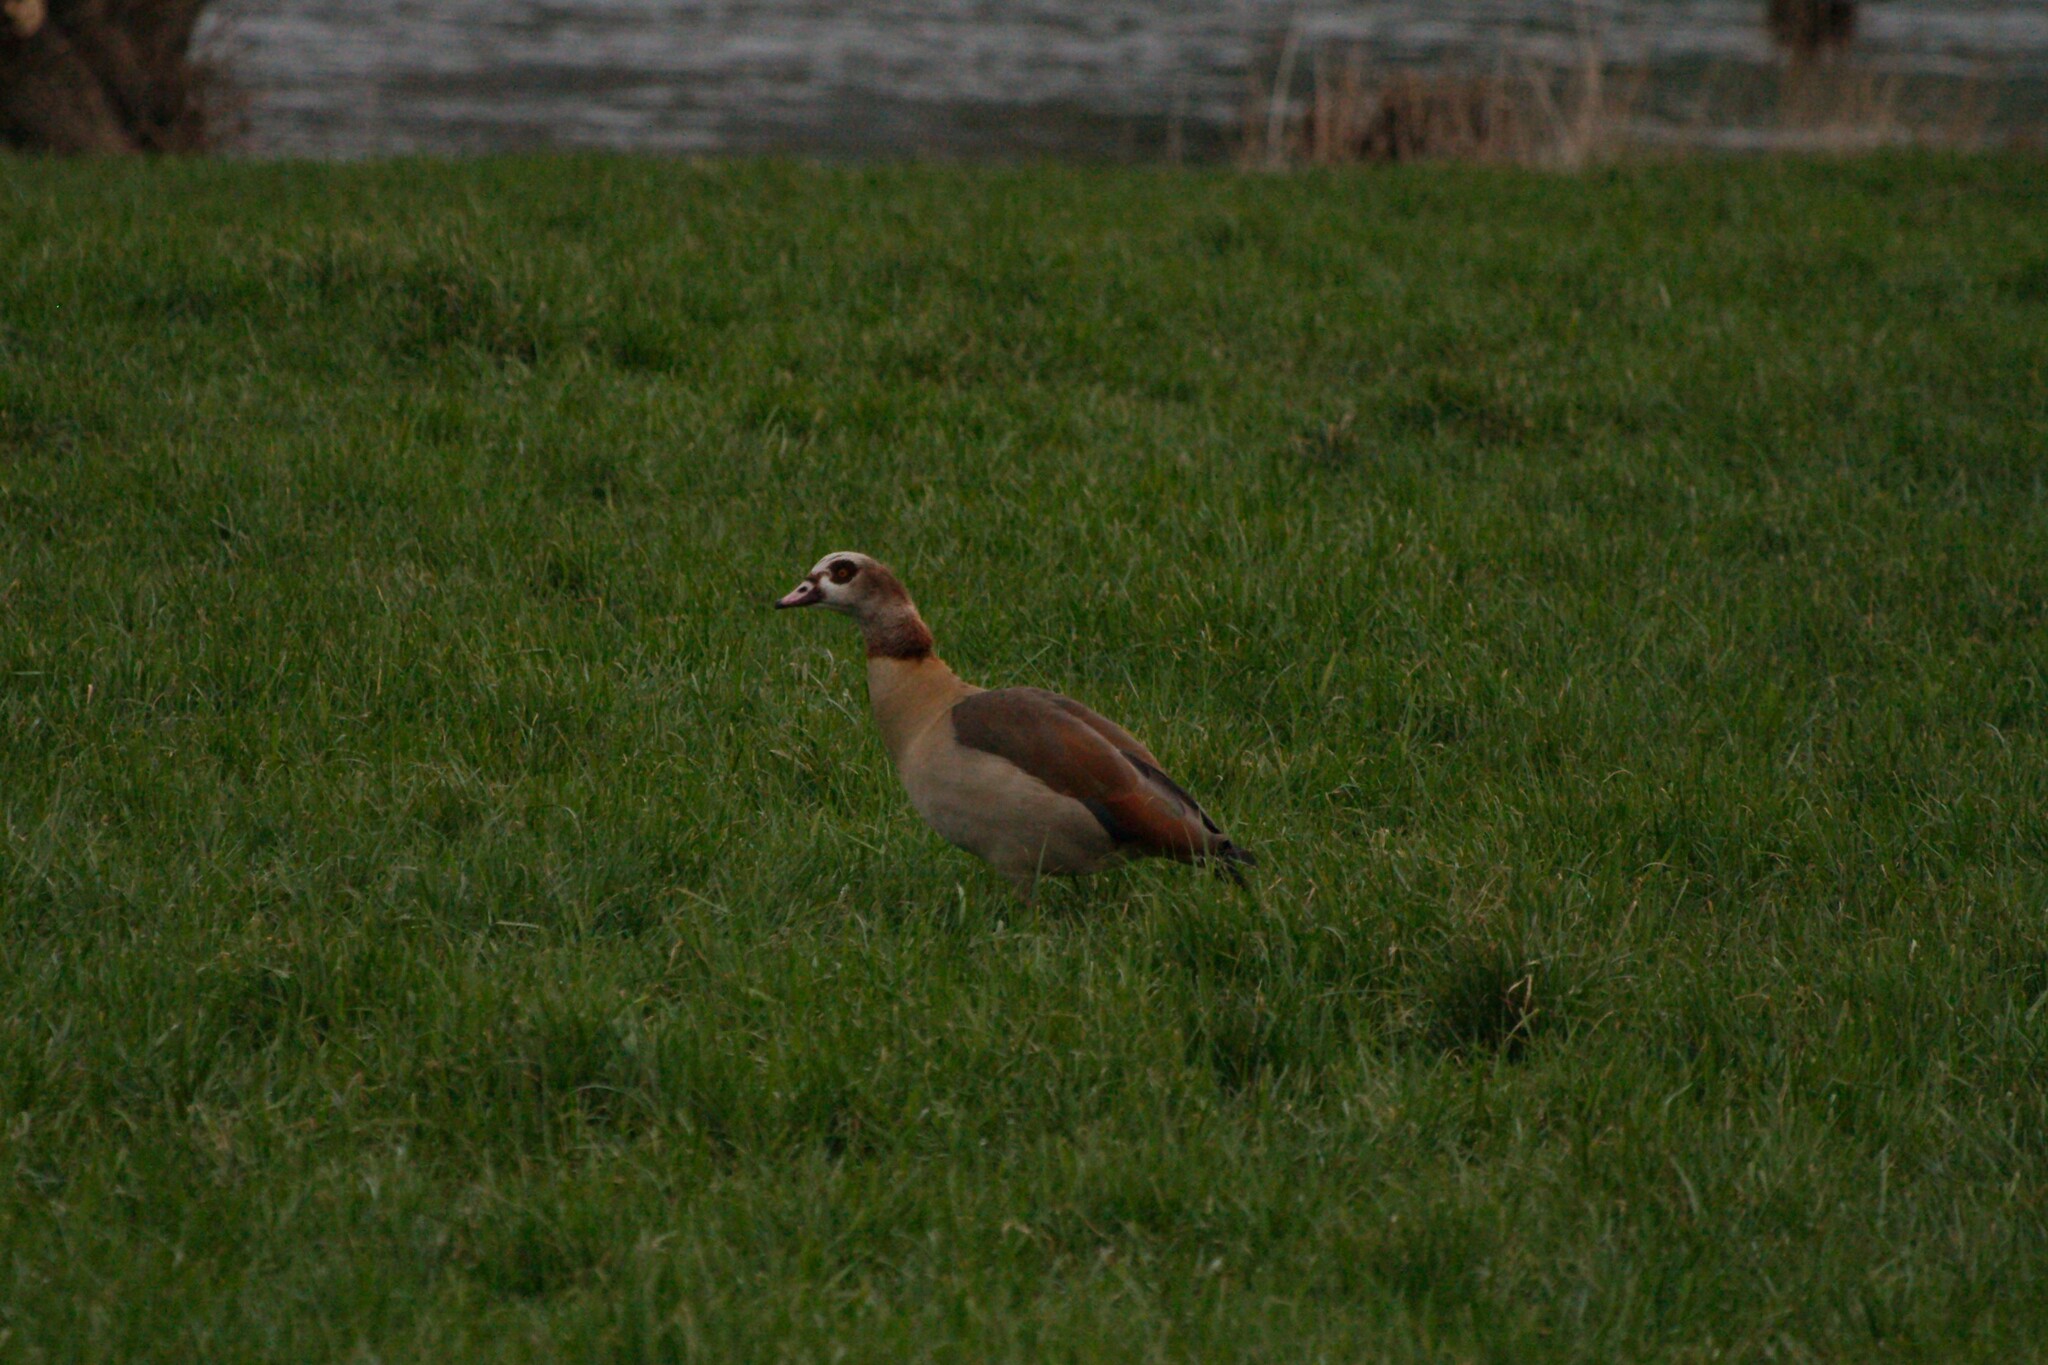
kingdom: Animalia
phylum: Chordata
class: Aves
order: Anseriformes
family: Anatidae
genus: Alopochen
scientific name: Alopochen aegyptiaca
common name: Egyptian goose
